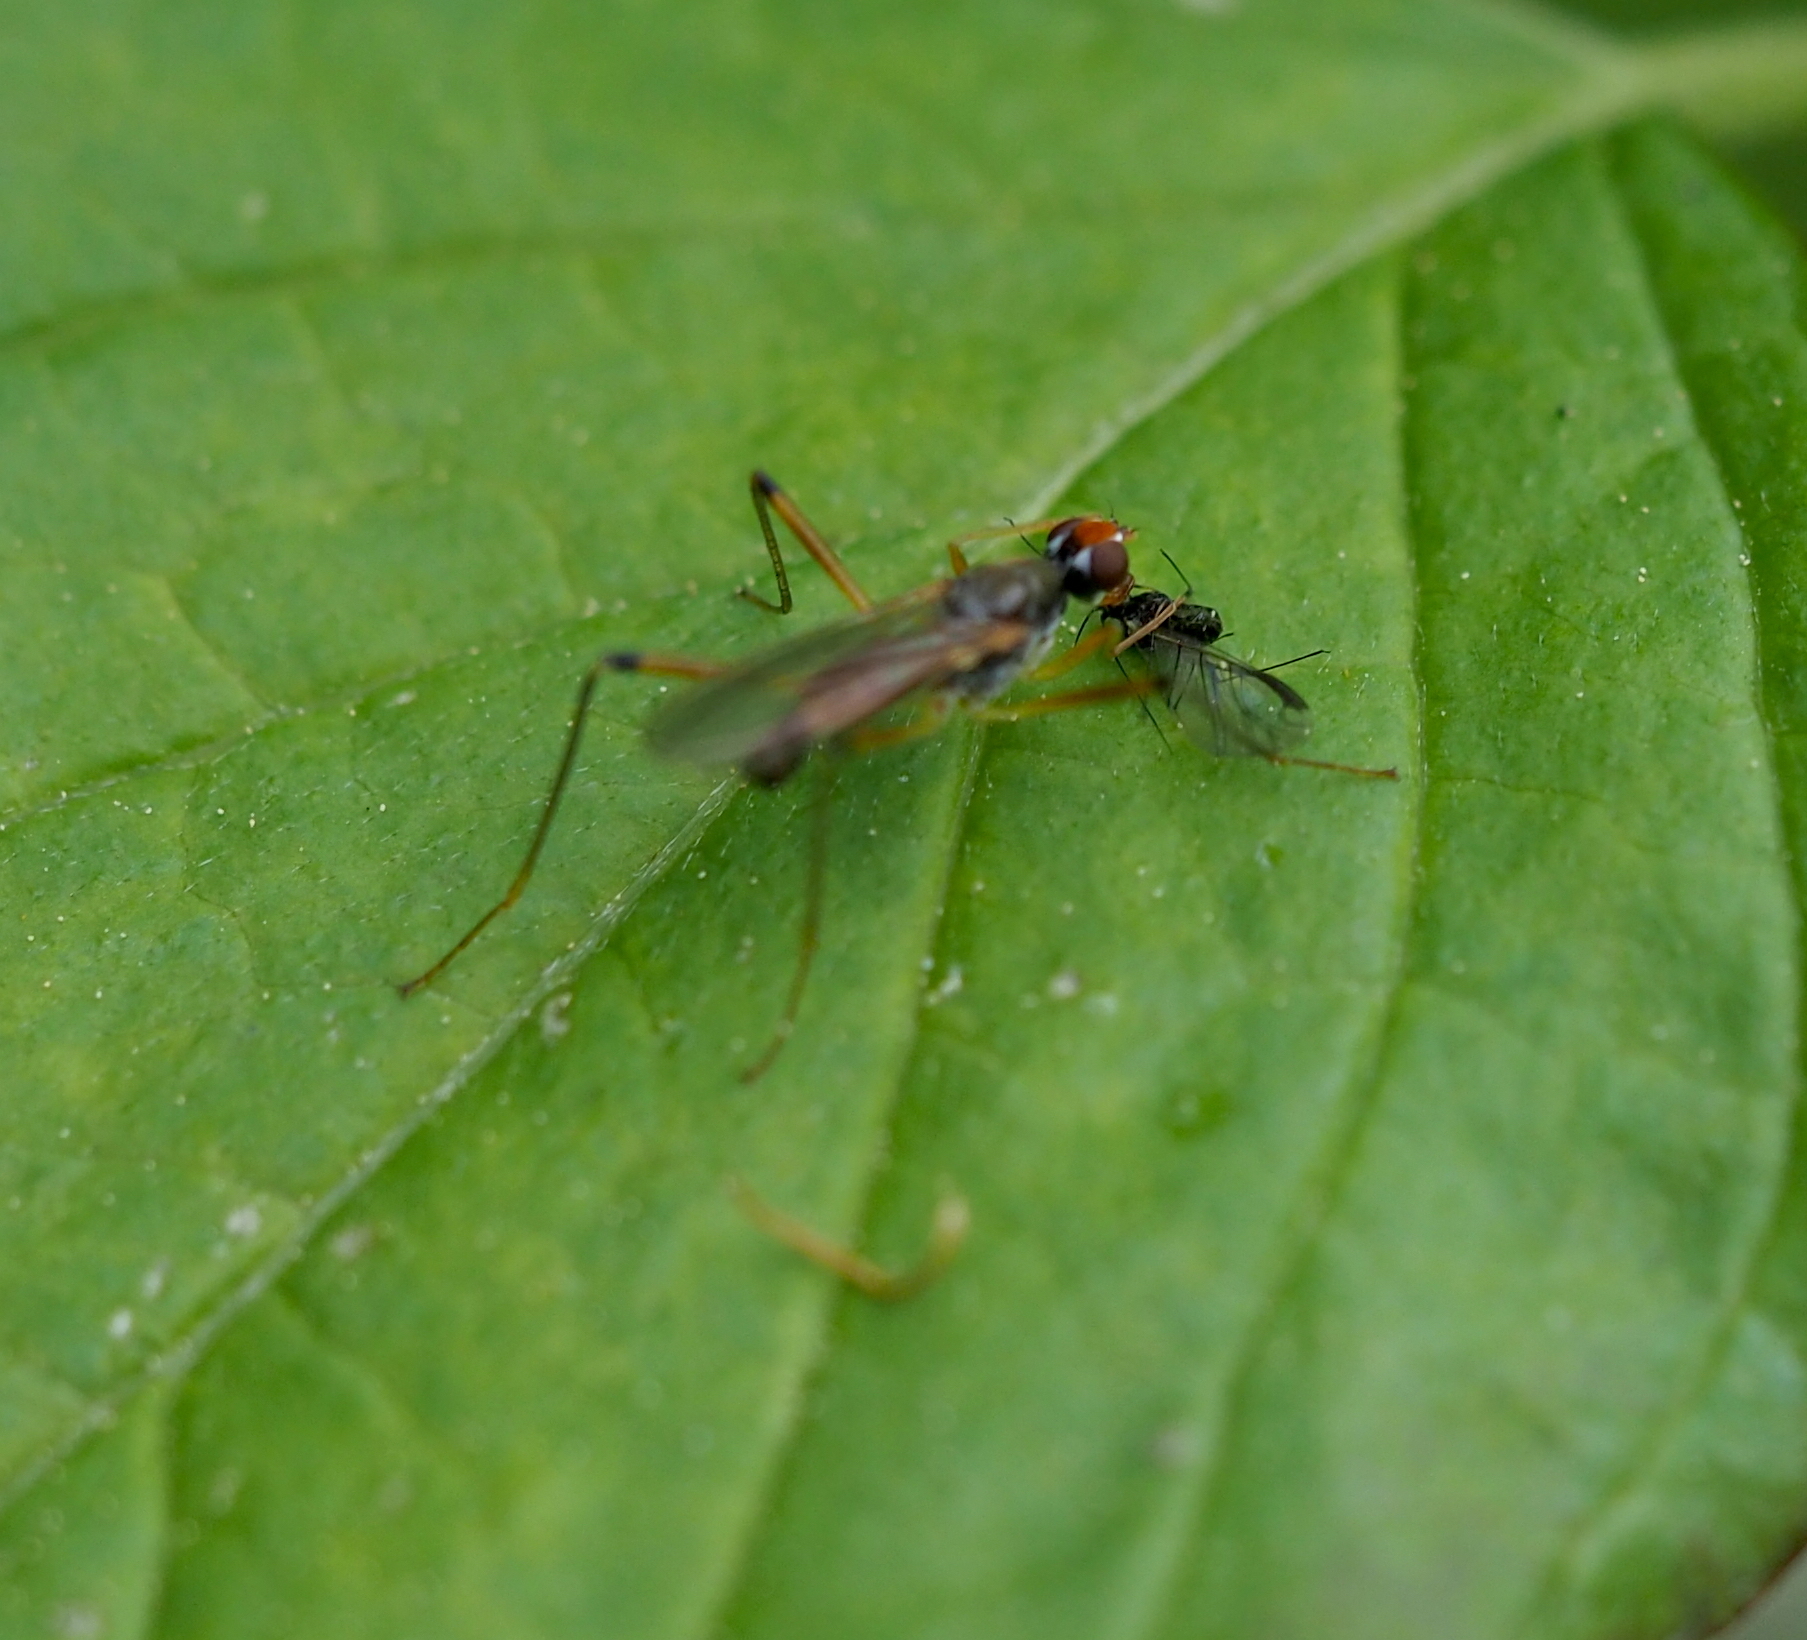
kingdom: Animalia
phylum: Arthropoda
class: Insecta
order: Diptera
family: Micropezidae
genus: Compsobata
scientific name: Compsobata cibaria
